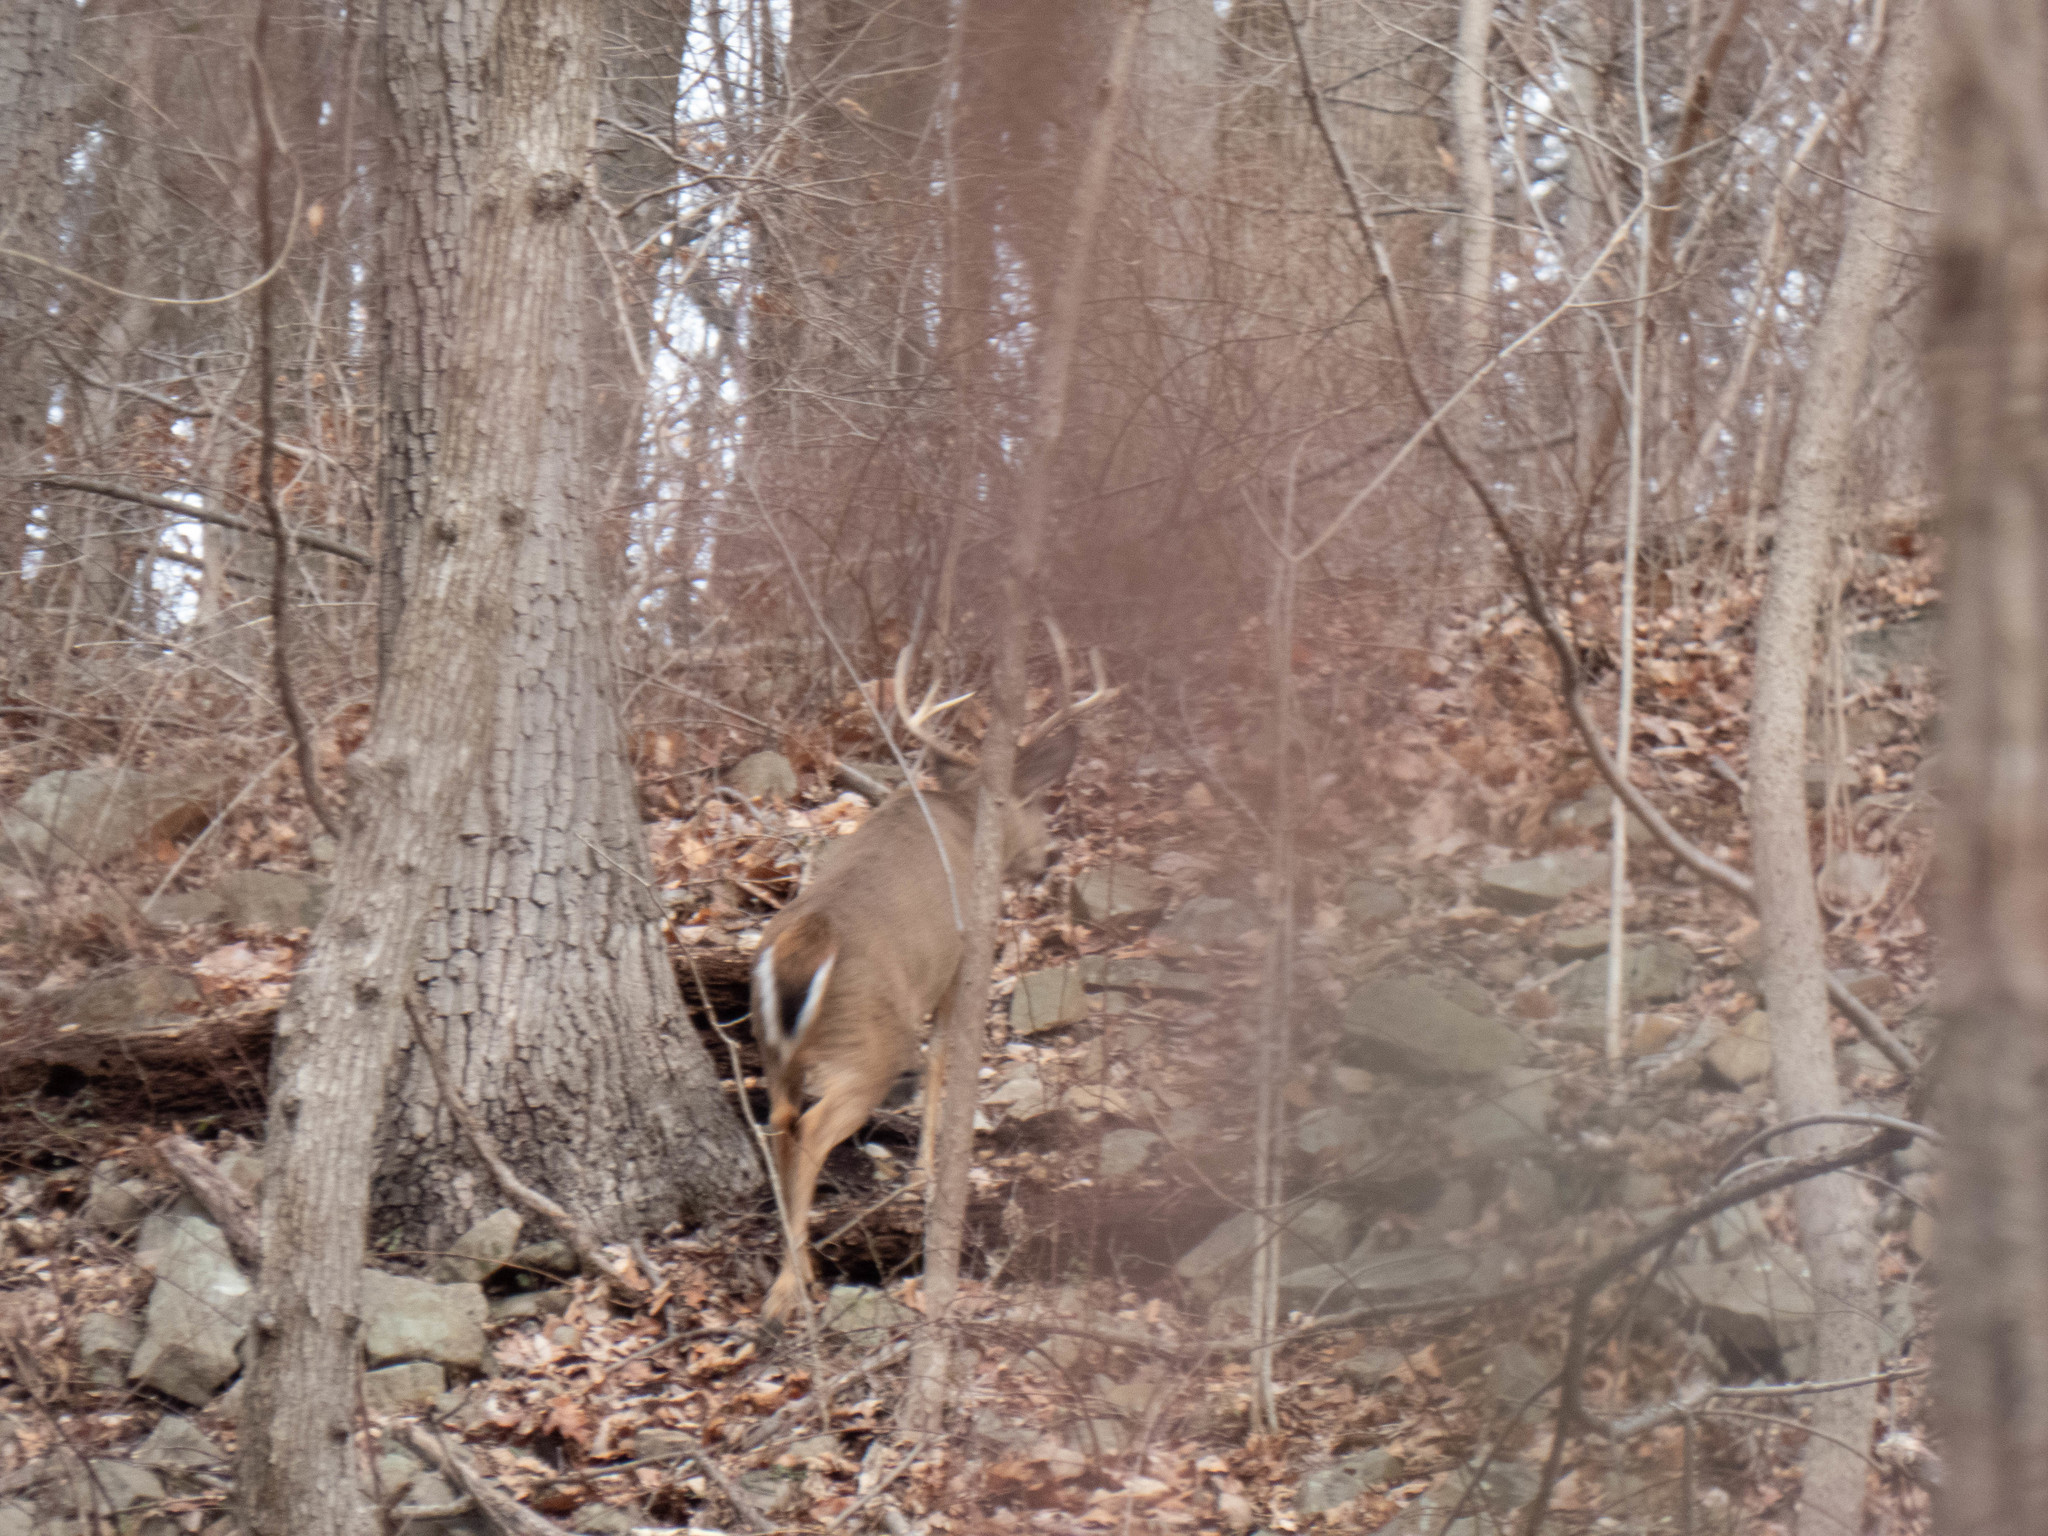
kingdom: Animalia
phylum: Chordata
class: Mammalia
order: Artiodactyla
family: Cervidae
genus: Odocoileus
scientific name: Odocoileus virginianus
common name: White-tailed deer
